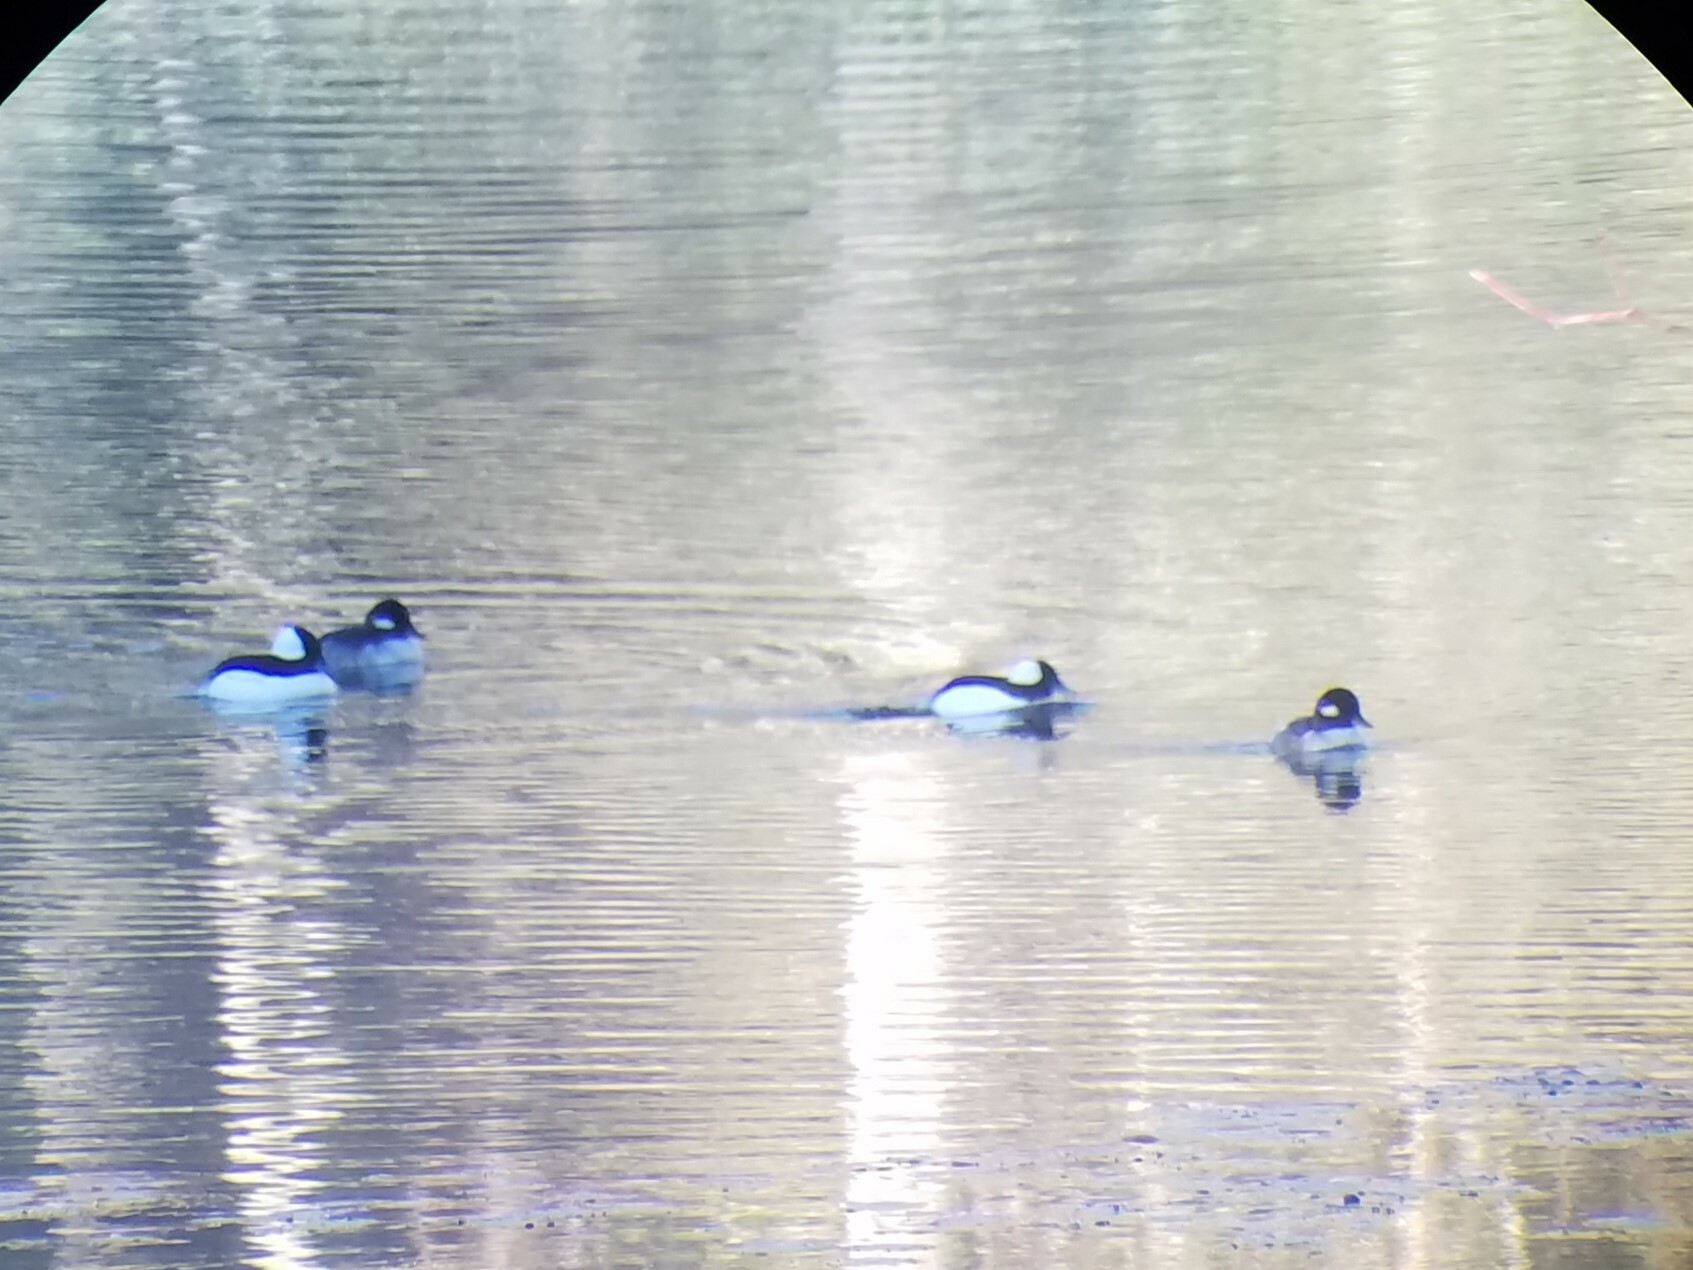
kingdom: Animalia
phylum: Chordata
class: Aves
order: Anseriformes
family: Anatidae
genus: Bucephala
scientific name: Bucephala albeola
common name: Bufflehead
